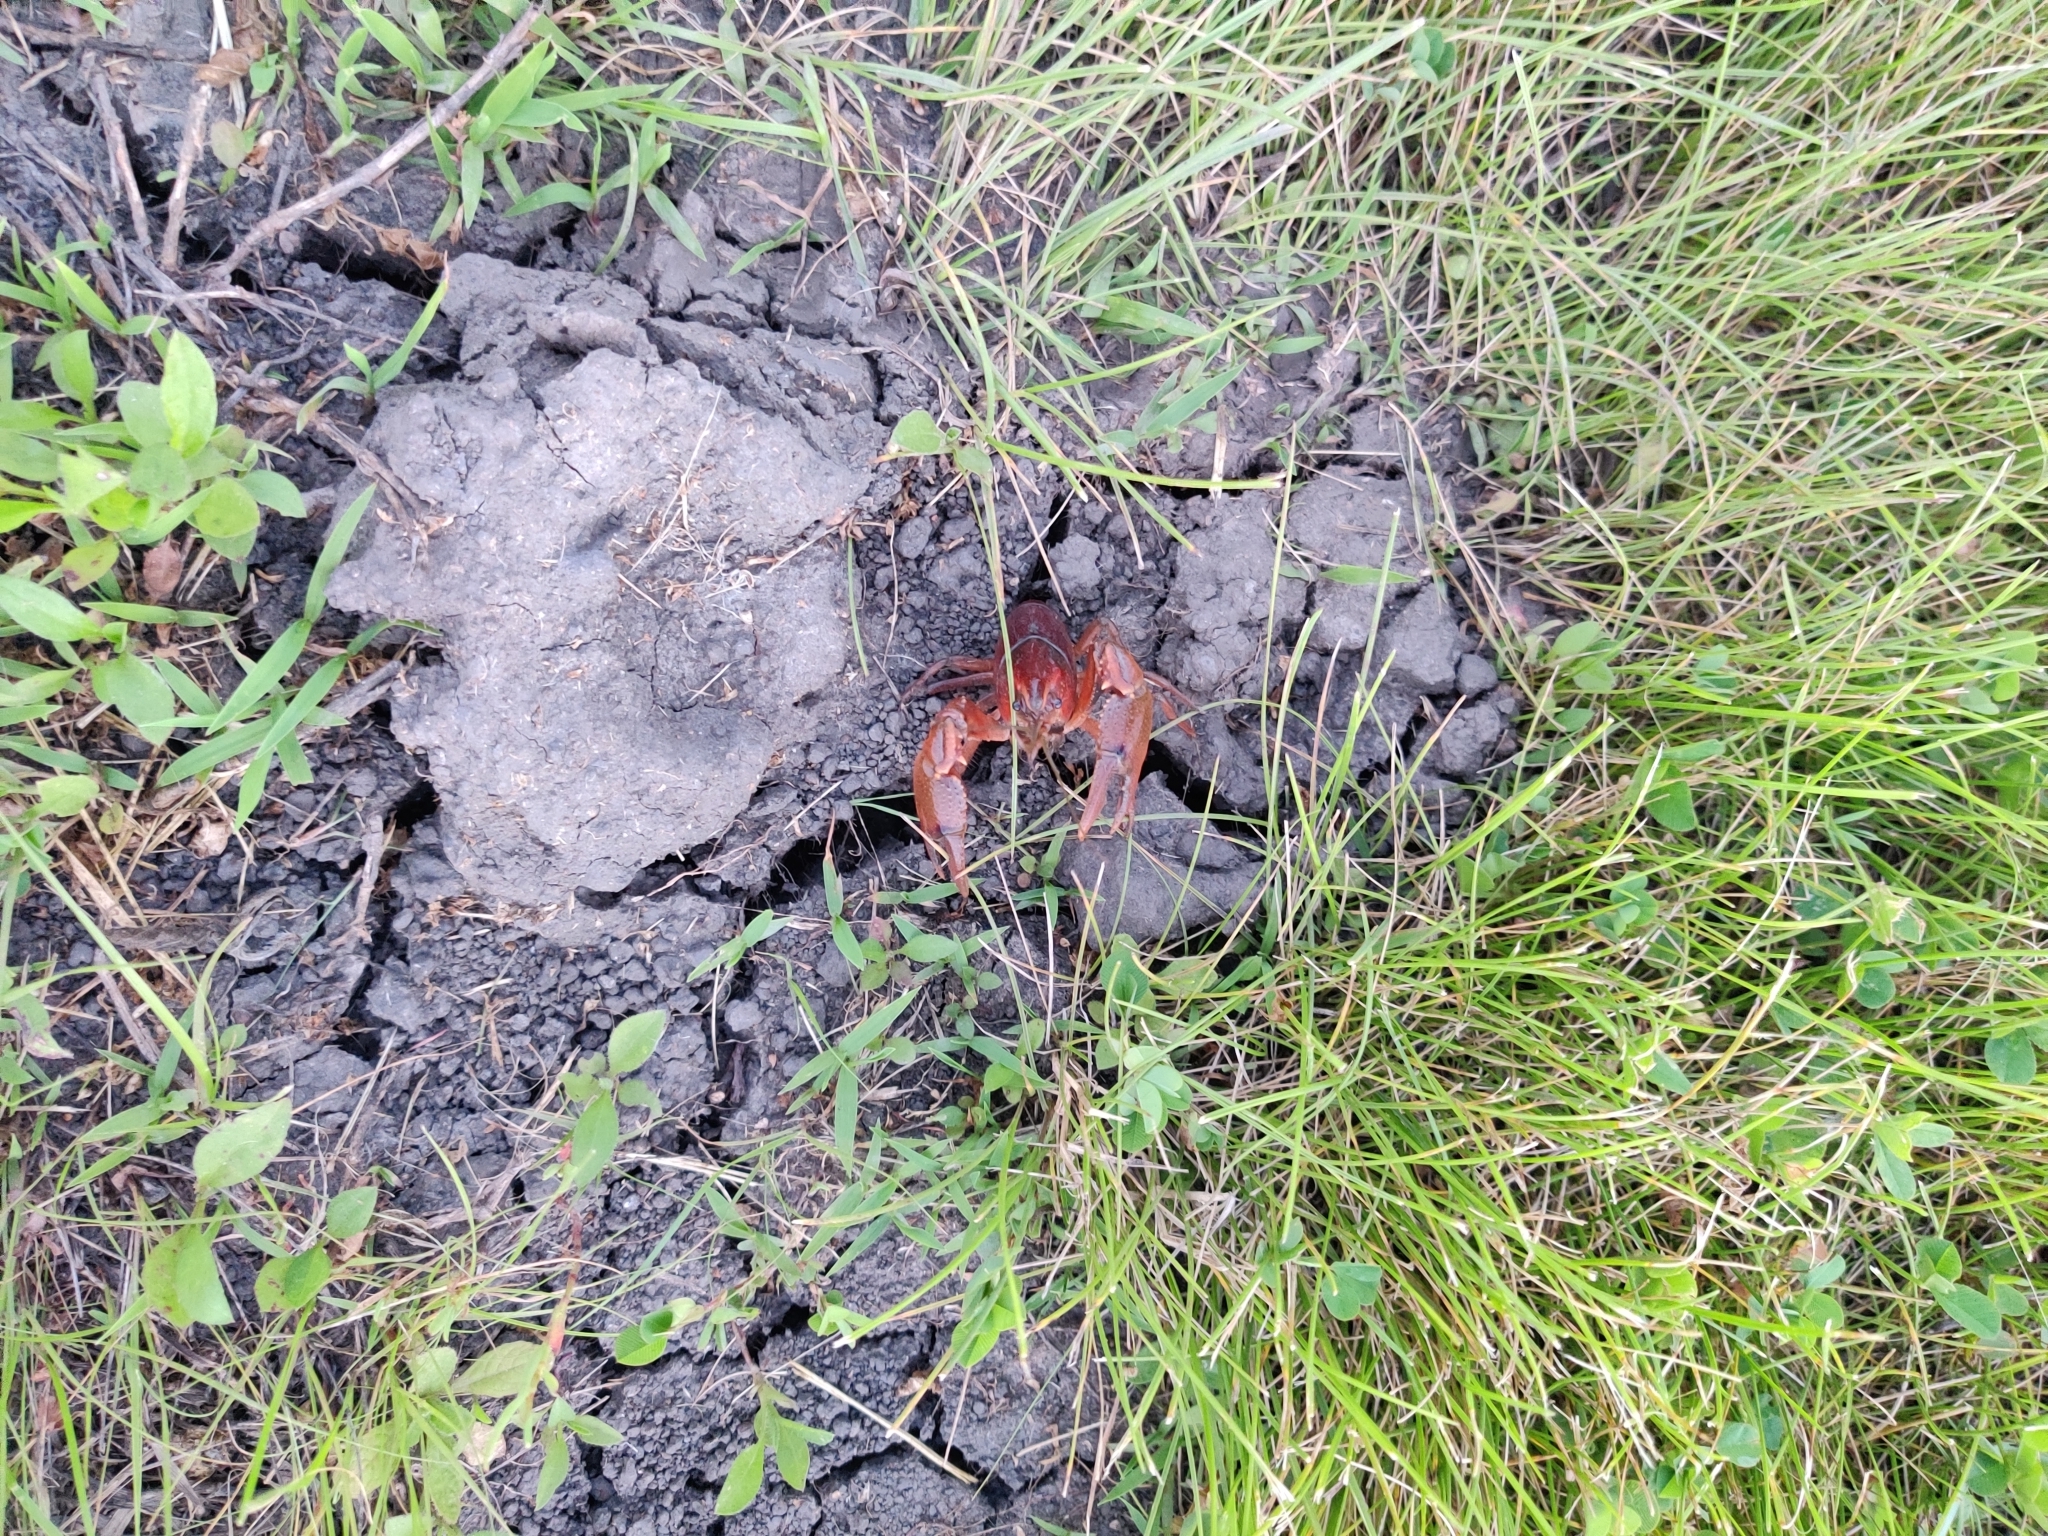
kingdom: Animalia
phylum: Arthropoda
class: Malacostraca
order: Decapoda
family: Cambaridae
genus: Procambarus
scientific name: Procambarus gracilis
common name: Prairie crayfish
